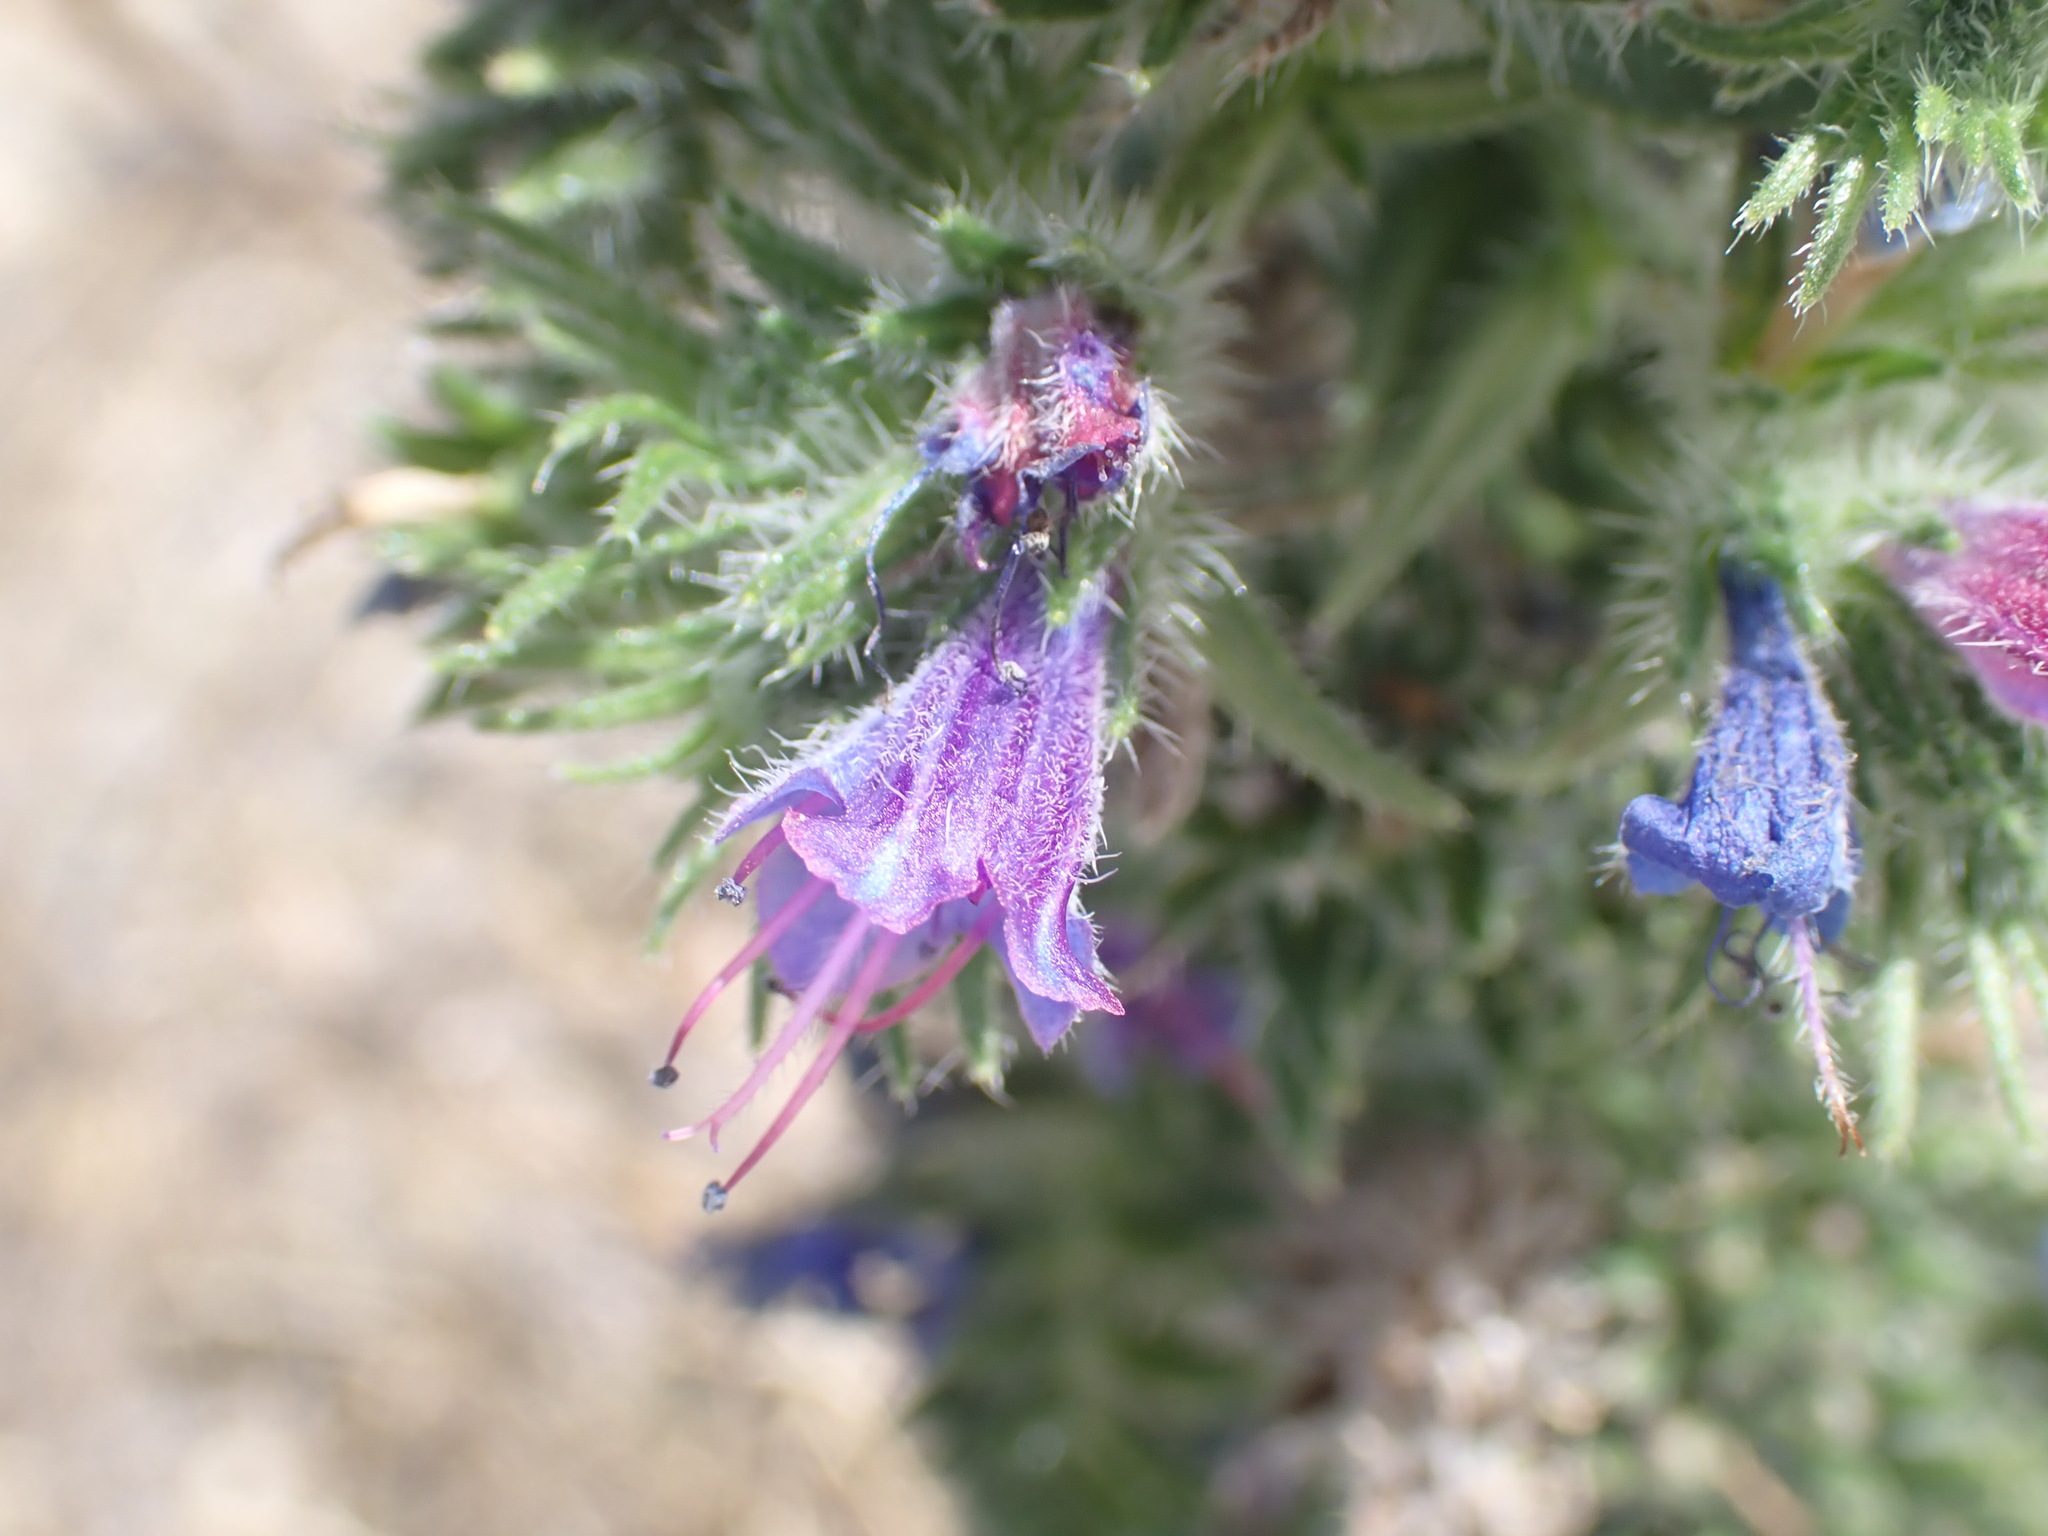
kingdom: Plantae
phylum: Tracheophyta
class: Magnoliopsida
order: Boraginales
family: Boraginaceae
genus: Echium
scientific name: Echium vulgare
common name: Common viper's bugloss
